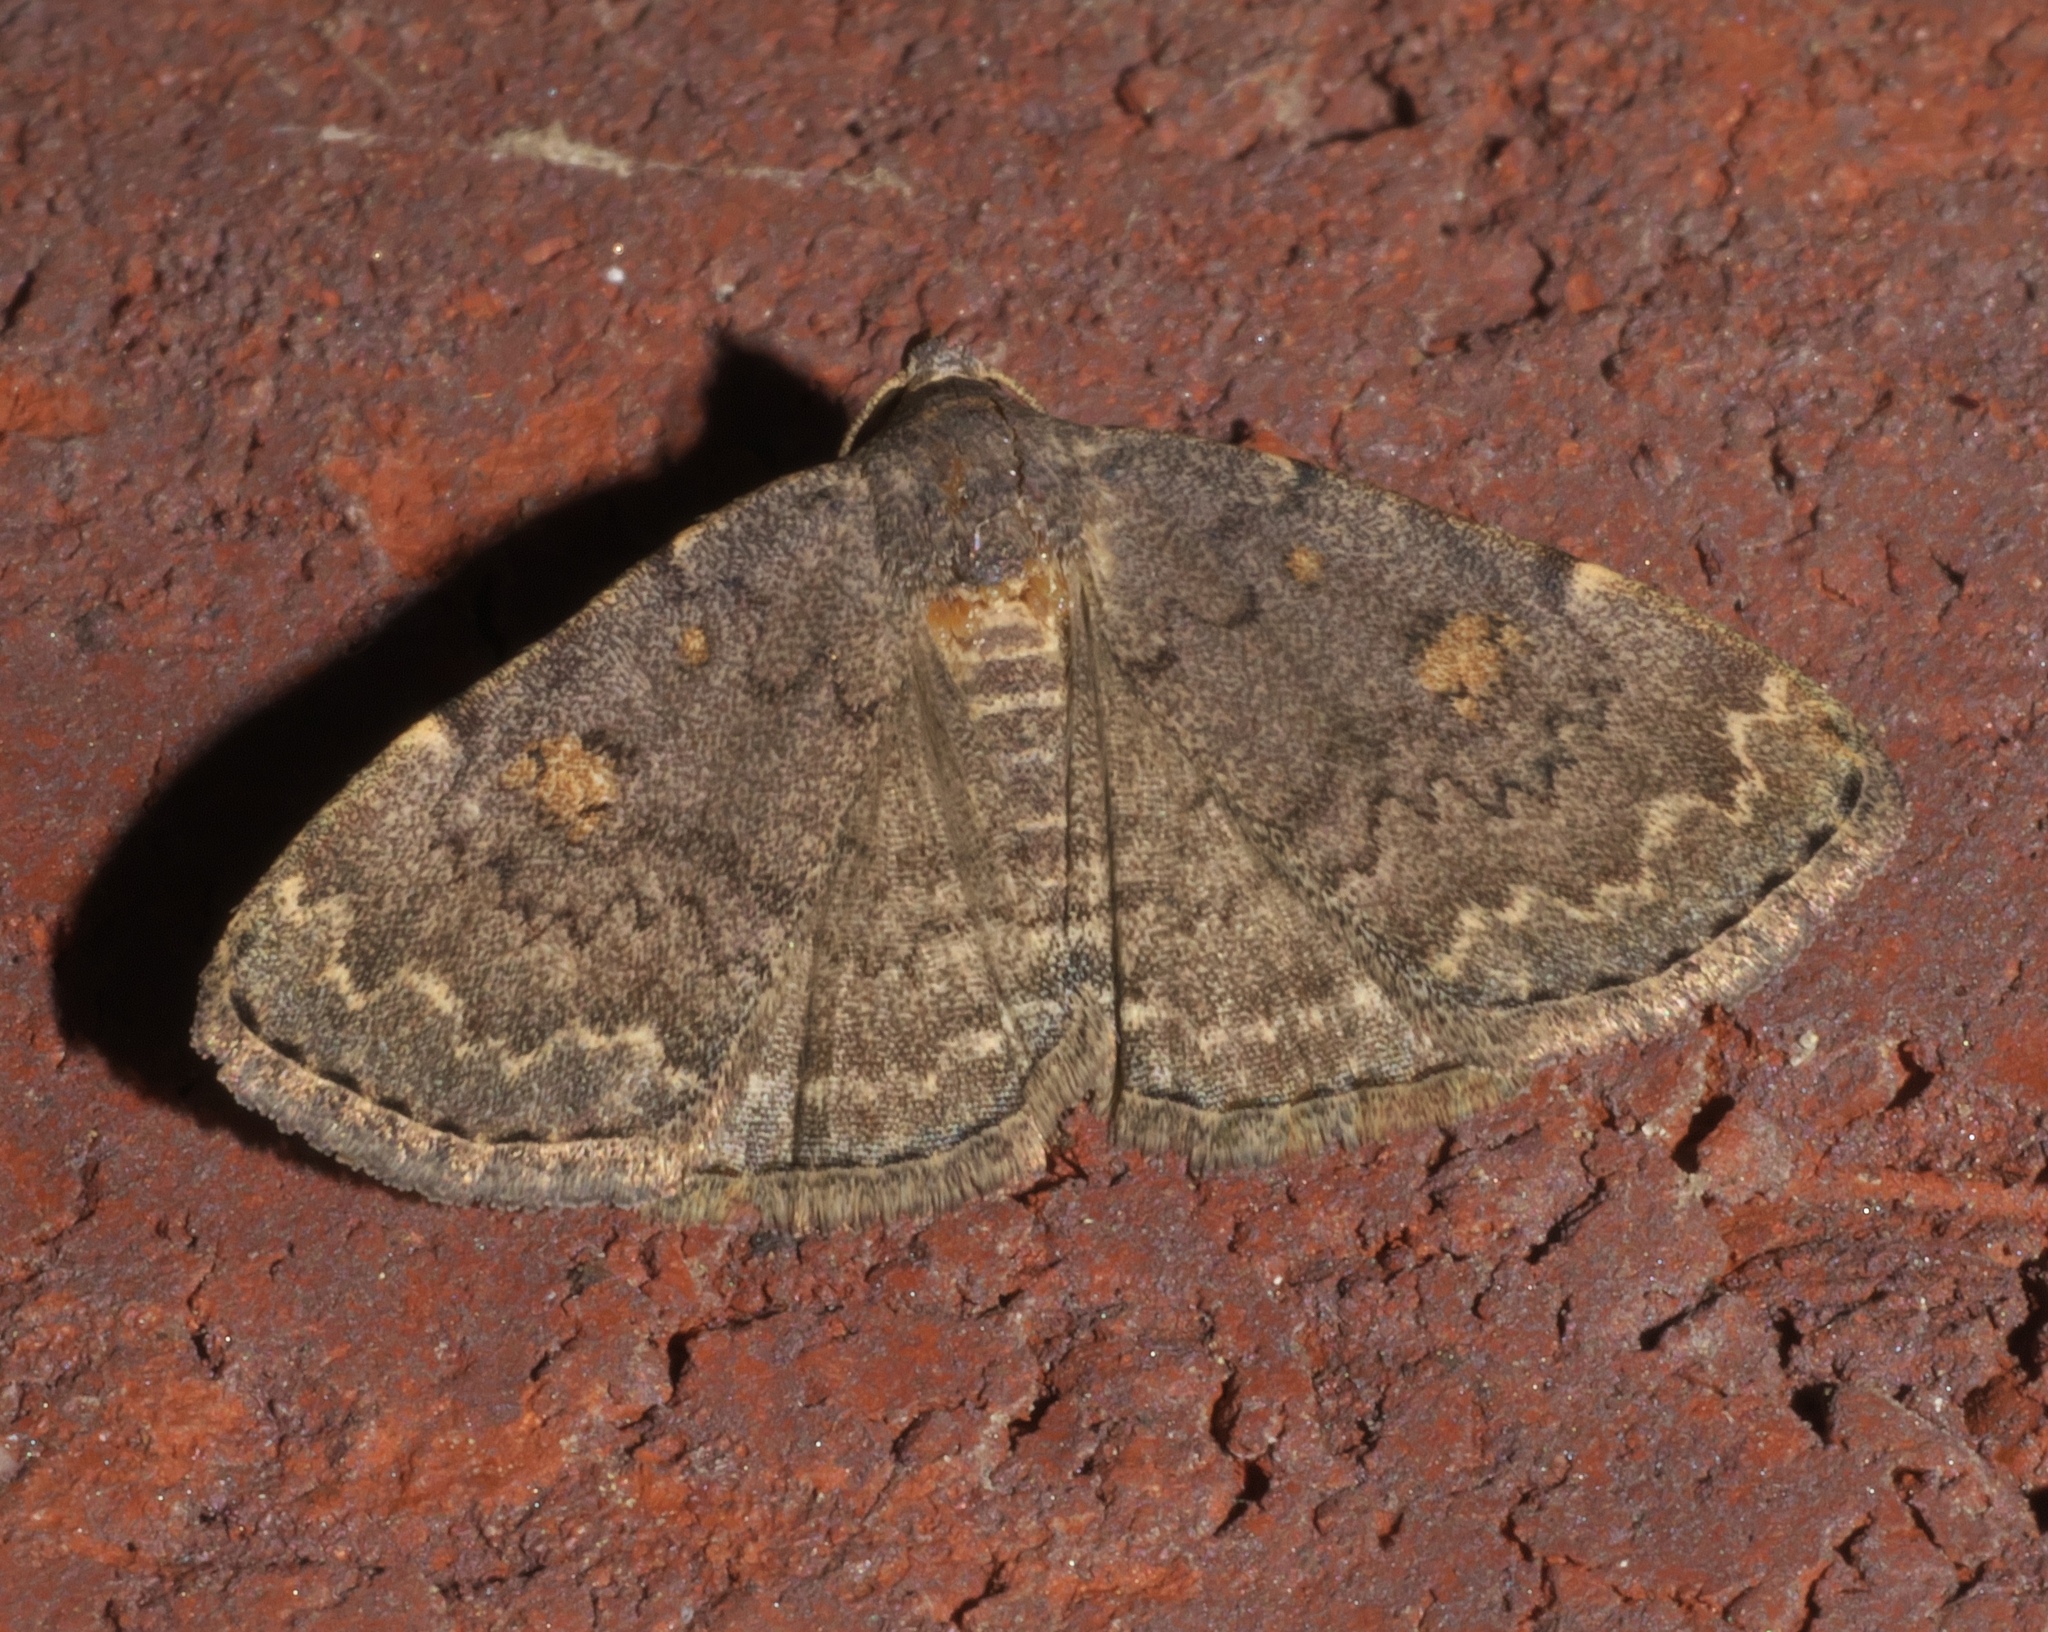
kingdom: Animalia
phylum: Arthropoda
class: Insecta
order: Lepidoptera
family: Erebidae
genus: Idia
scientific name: Idia aemula
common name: Common idia moth
